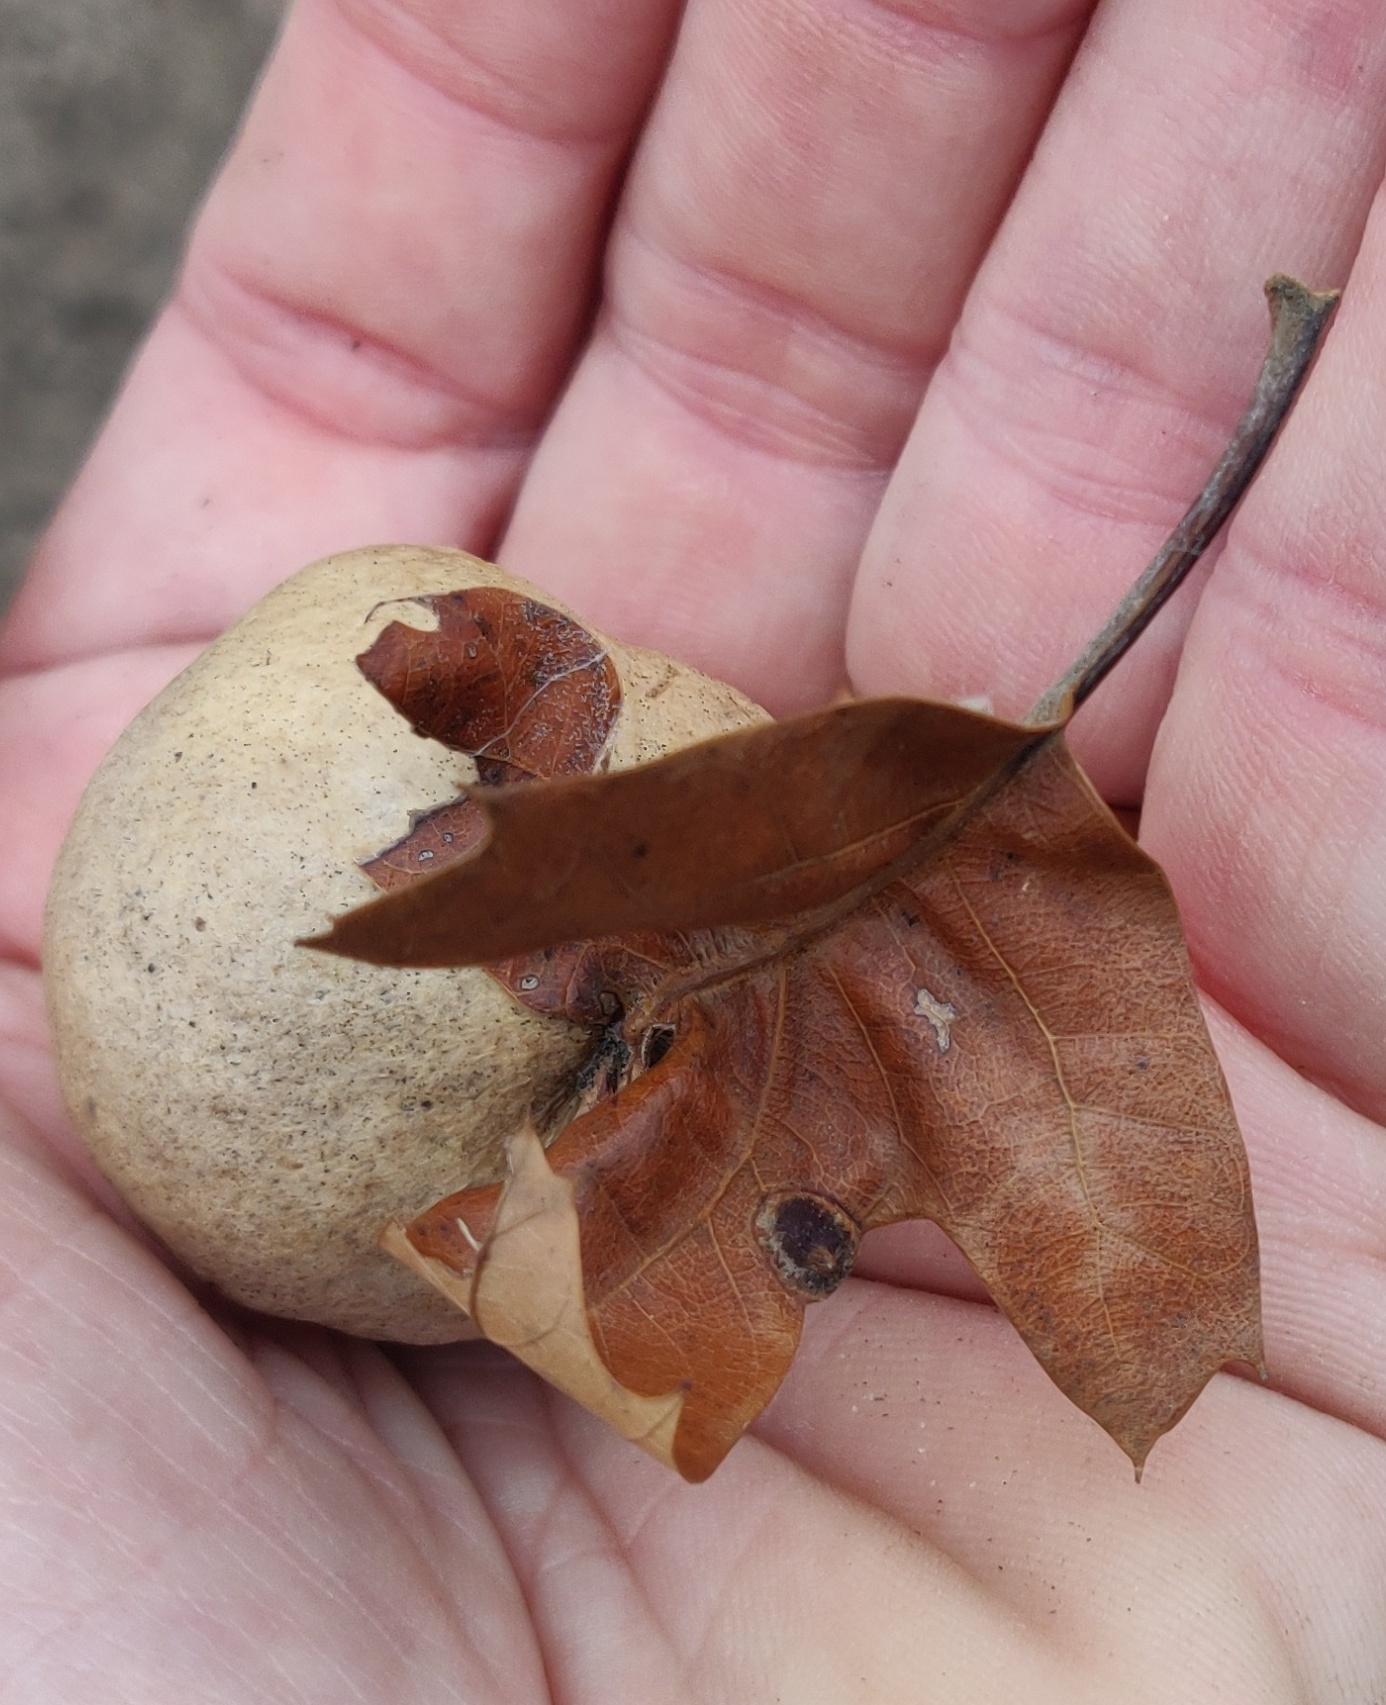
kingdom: Animalia
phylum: Arthropoda
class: Insecta
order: Hymenoptera
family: Cynipidae
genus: Amphibolips
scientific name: Amphibolips
